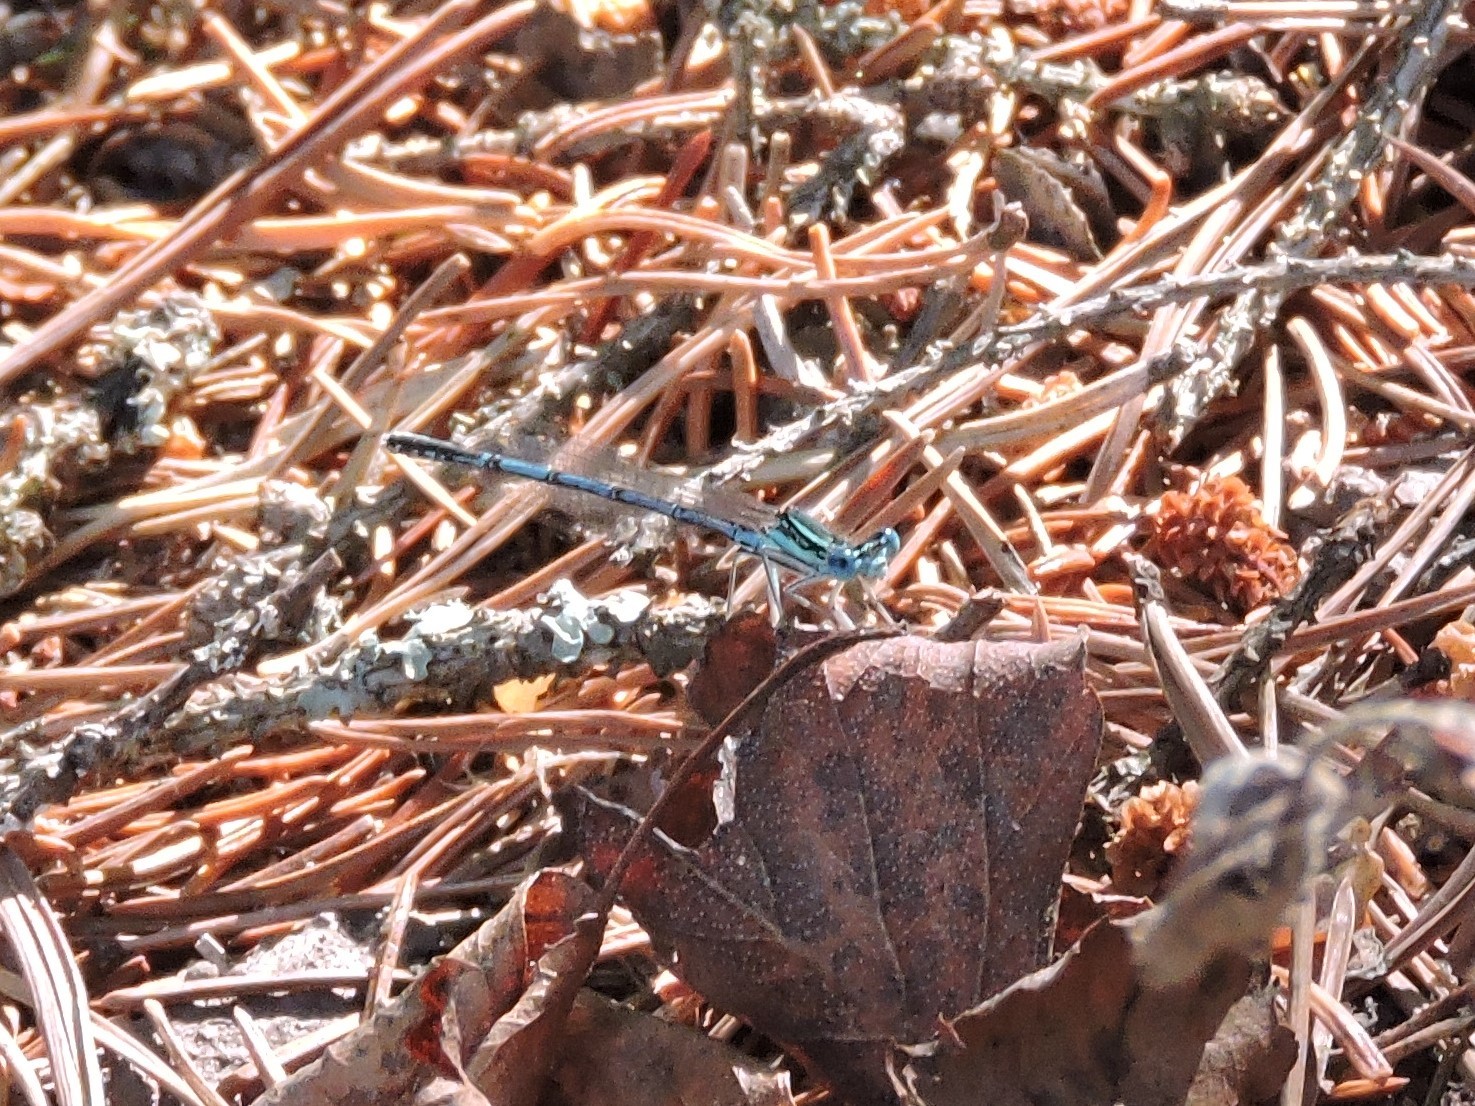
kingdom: Animalia
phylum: Arthropoda
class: Insecta
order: Odonata
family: Platycnemididae
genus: Platycnemis
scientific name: Platycnemis pennipes
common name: White-legged damselfly
